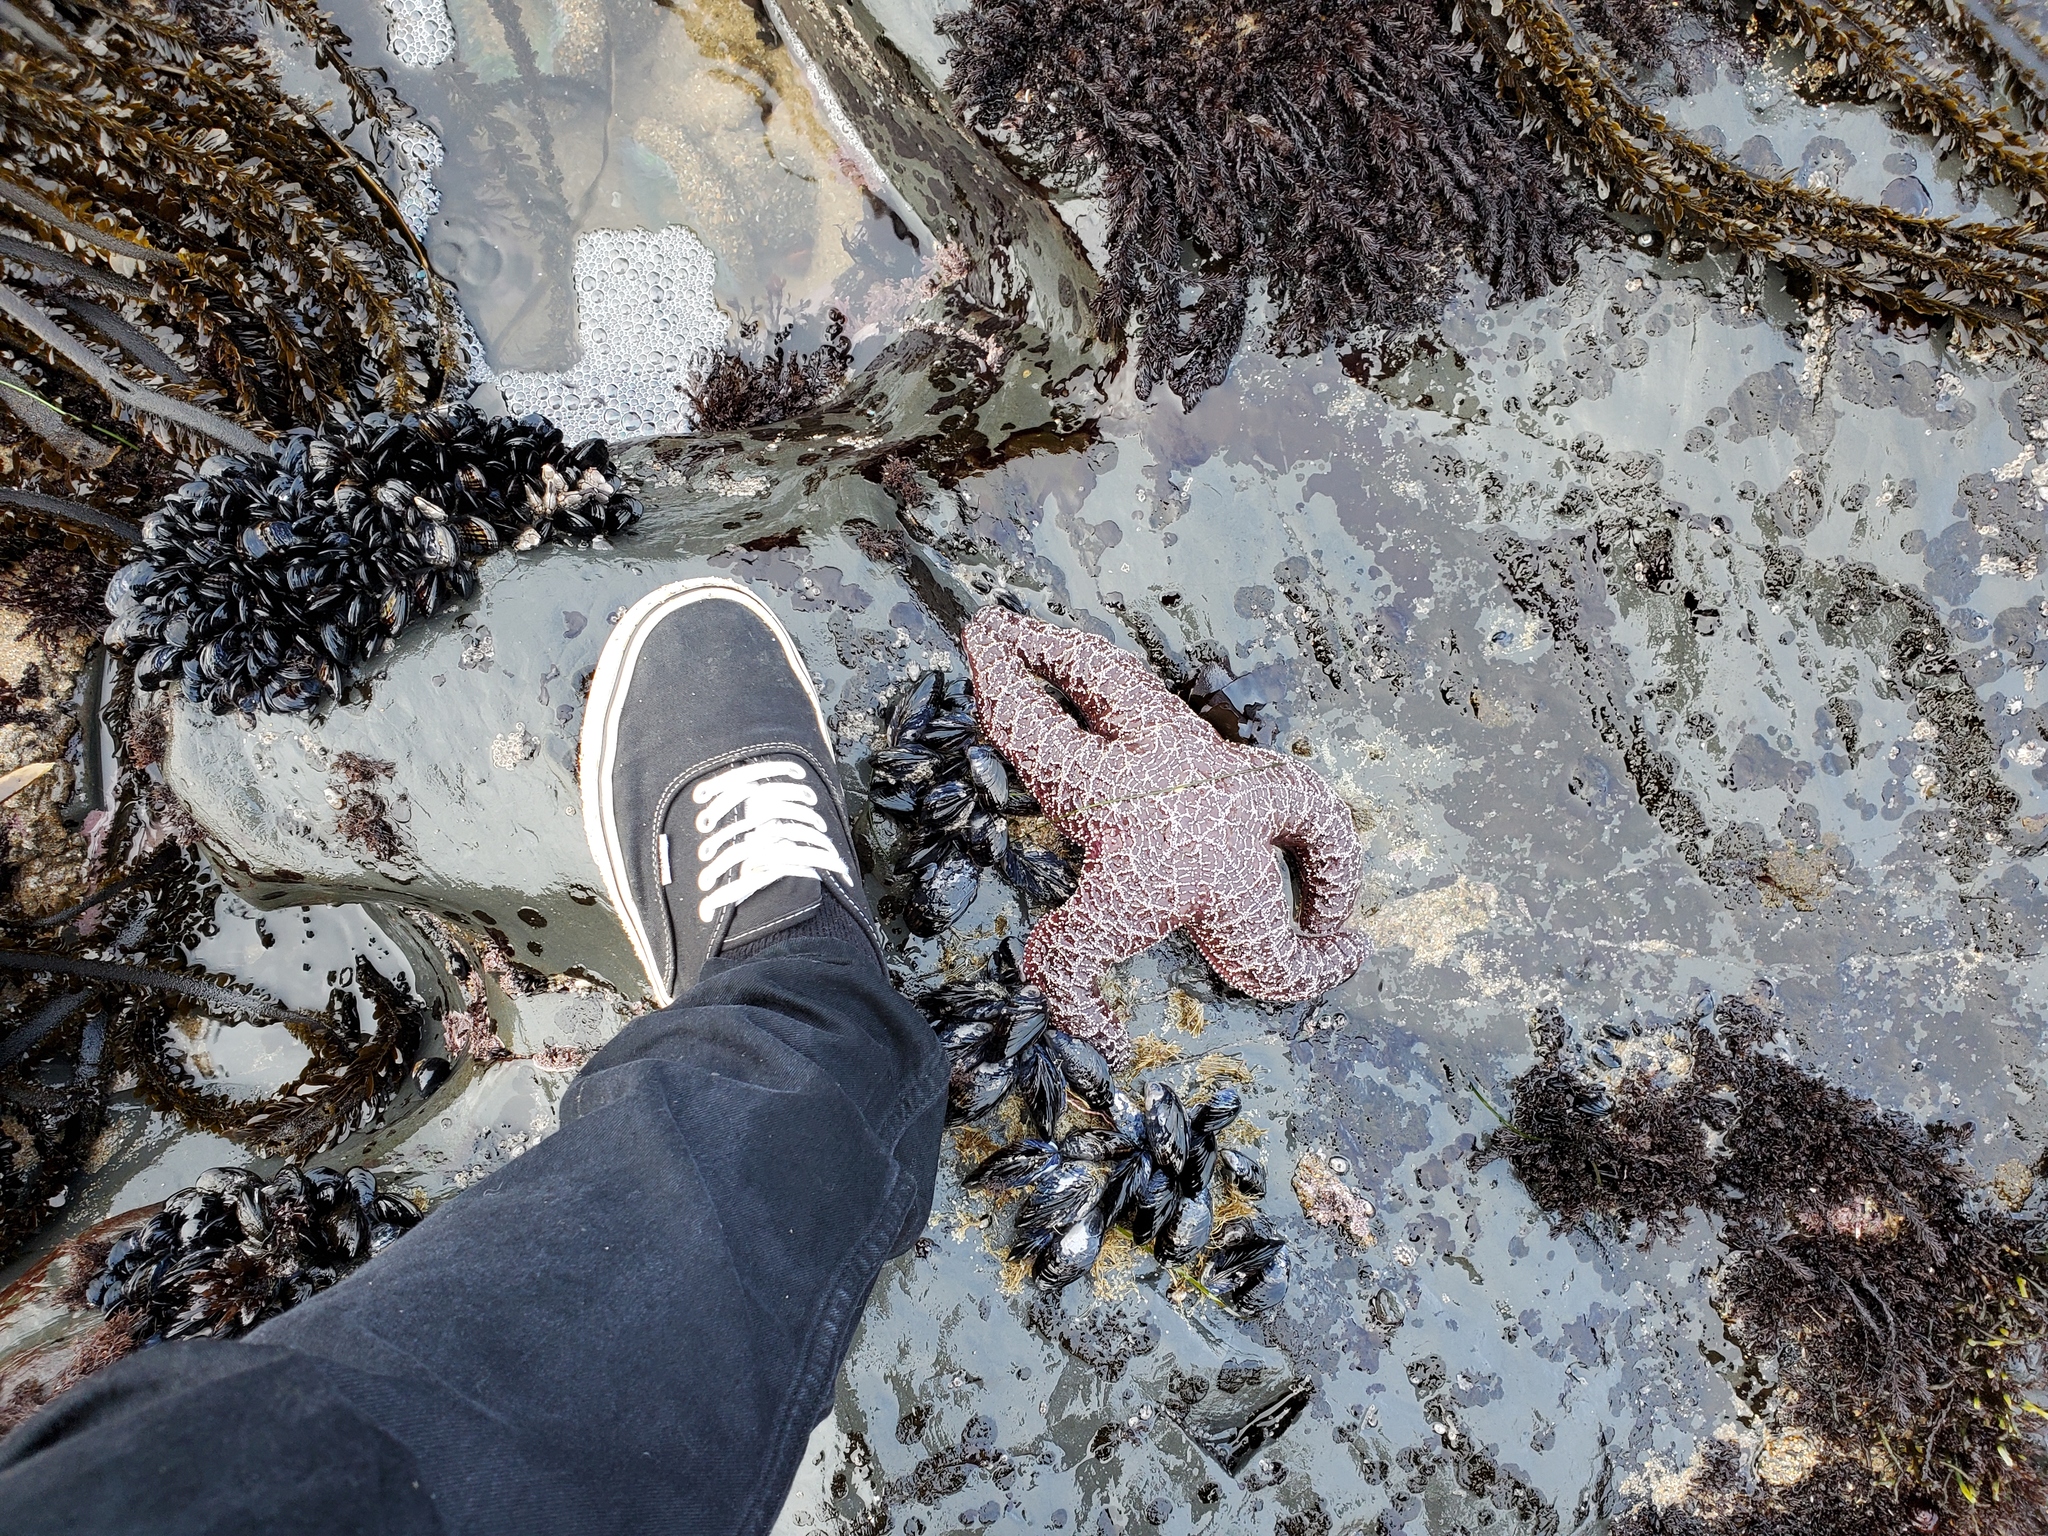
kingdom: Animalia
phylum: Echinodermata
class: Asteroidea
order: Forcipulatida
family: Asteriidae
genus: Pisaster
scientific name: Pisaster ochraceus
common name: Ochre stars
